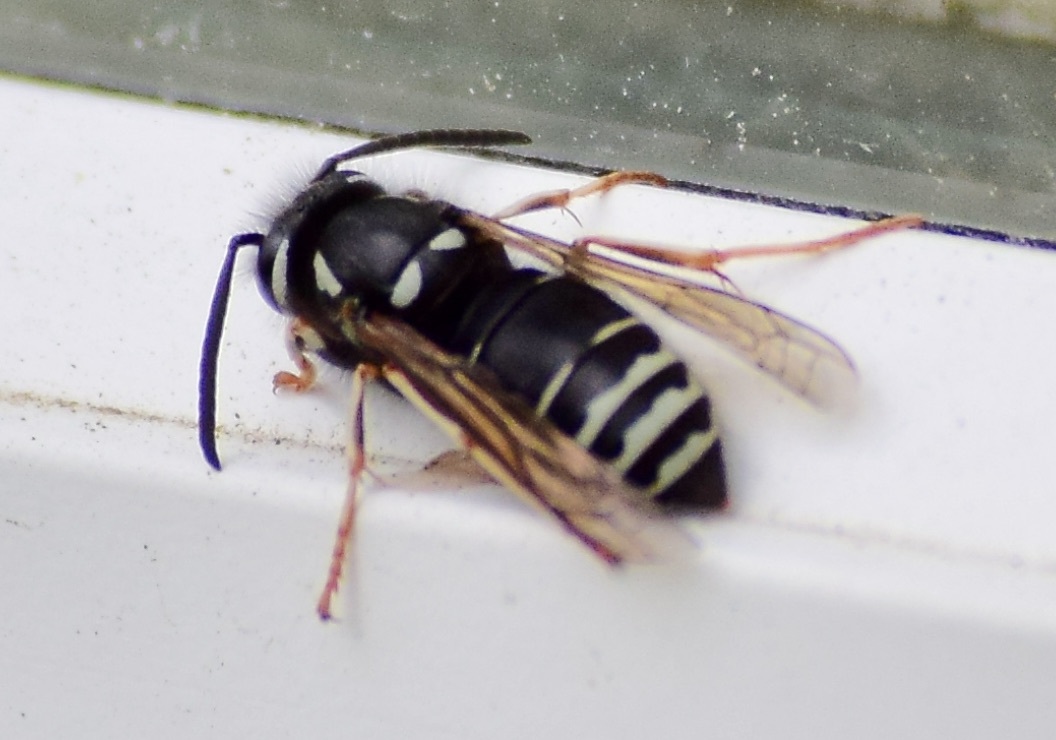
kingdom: Animalia
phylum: Arthropoda
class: Insecta
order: Hymenoptera
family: Vespidae
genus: Vespula
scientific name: Vespula consobrina
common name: Blackjacket
